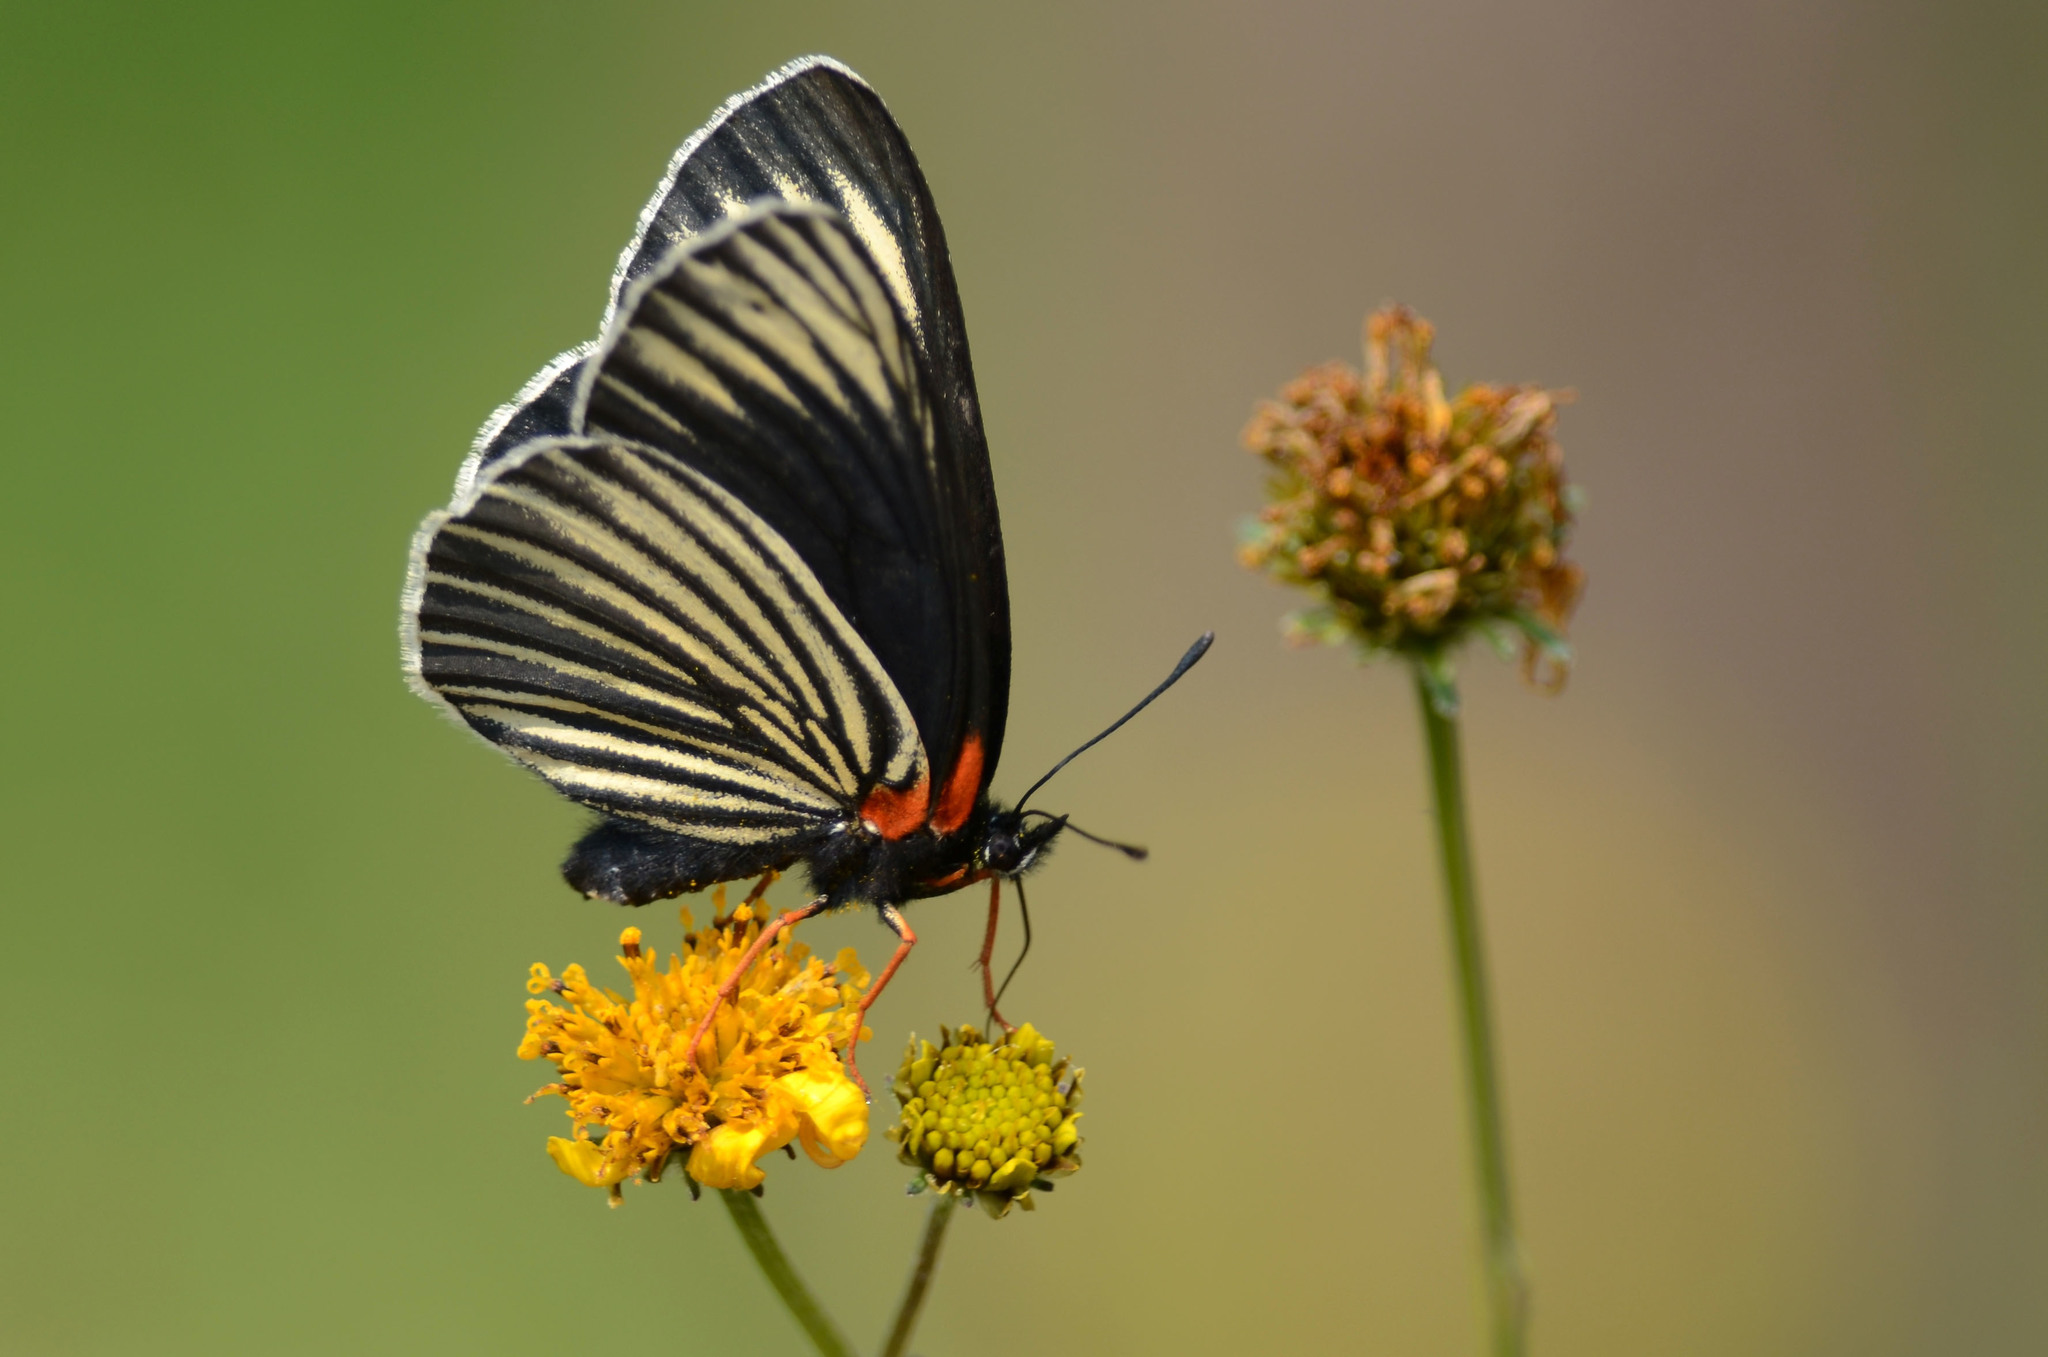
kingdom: Animalia
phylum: Arthropoda
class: Insecta
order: Lepidoptera
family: Nymphalidae
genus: Chlosyne
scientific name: Chlosyne ehrenbergii
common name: White-rayed patch
